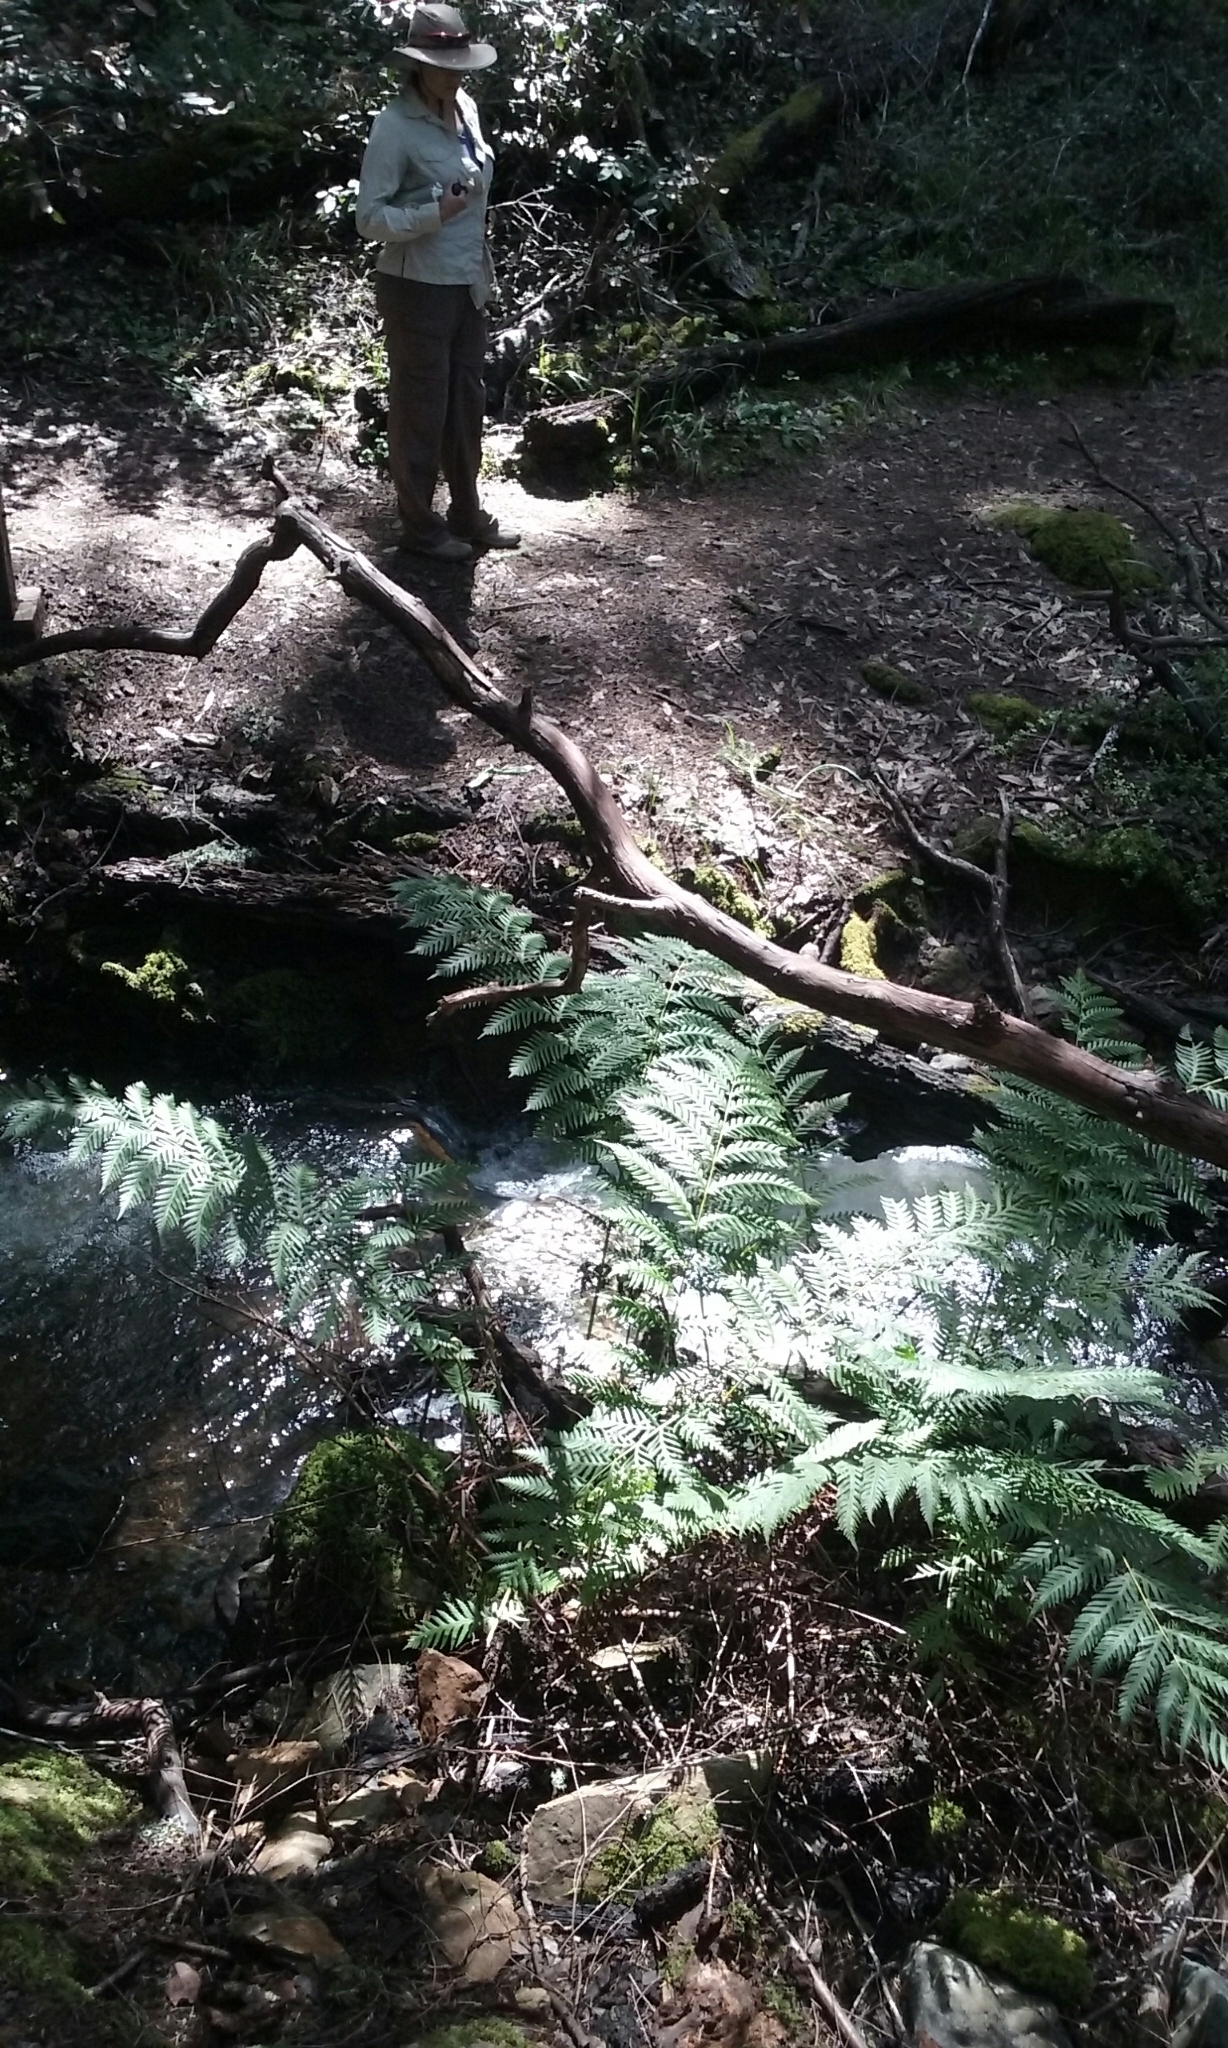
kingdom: Plantae
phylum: Tracheophyta
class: Polypodiopsida
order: Polypodiales
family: Blechnaceae
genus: Woodwardia
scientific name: Woodwardia fimbriata
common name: Giant chain fern
